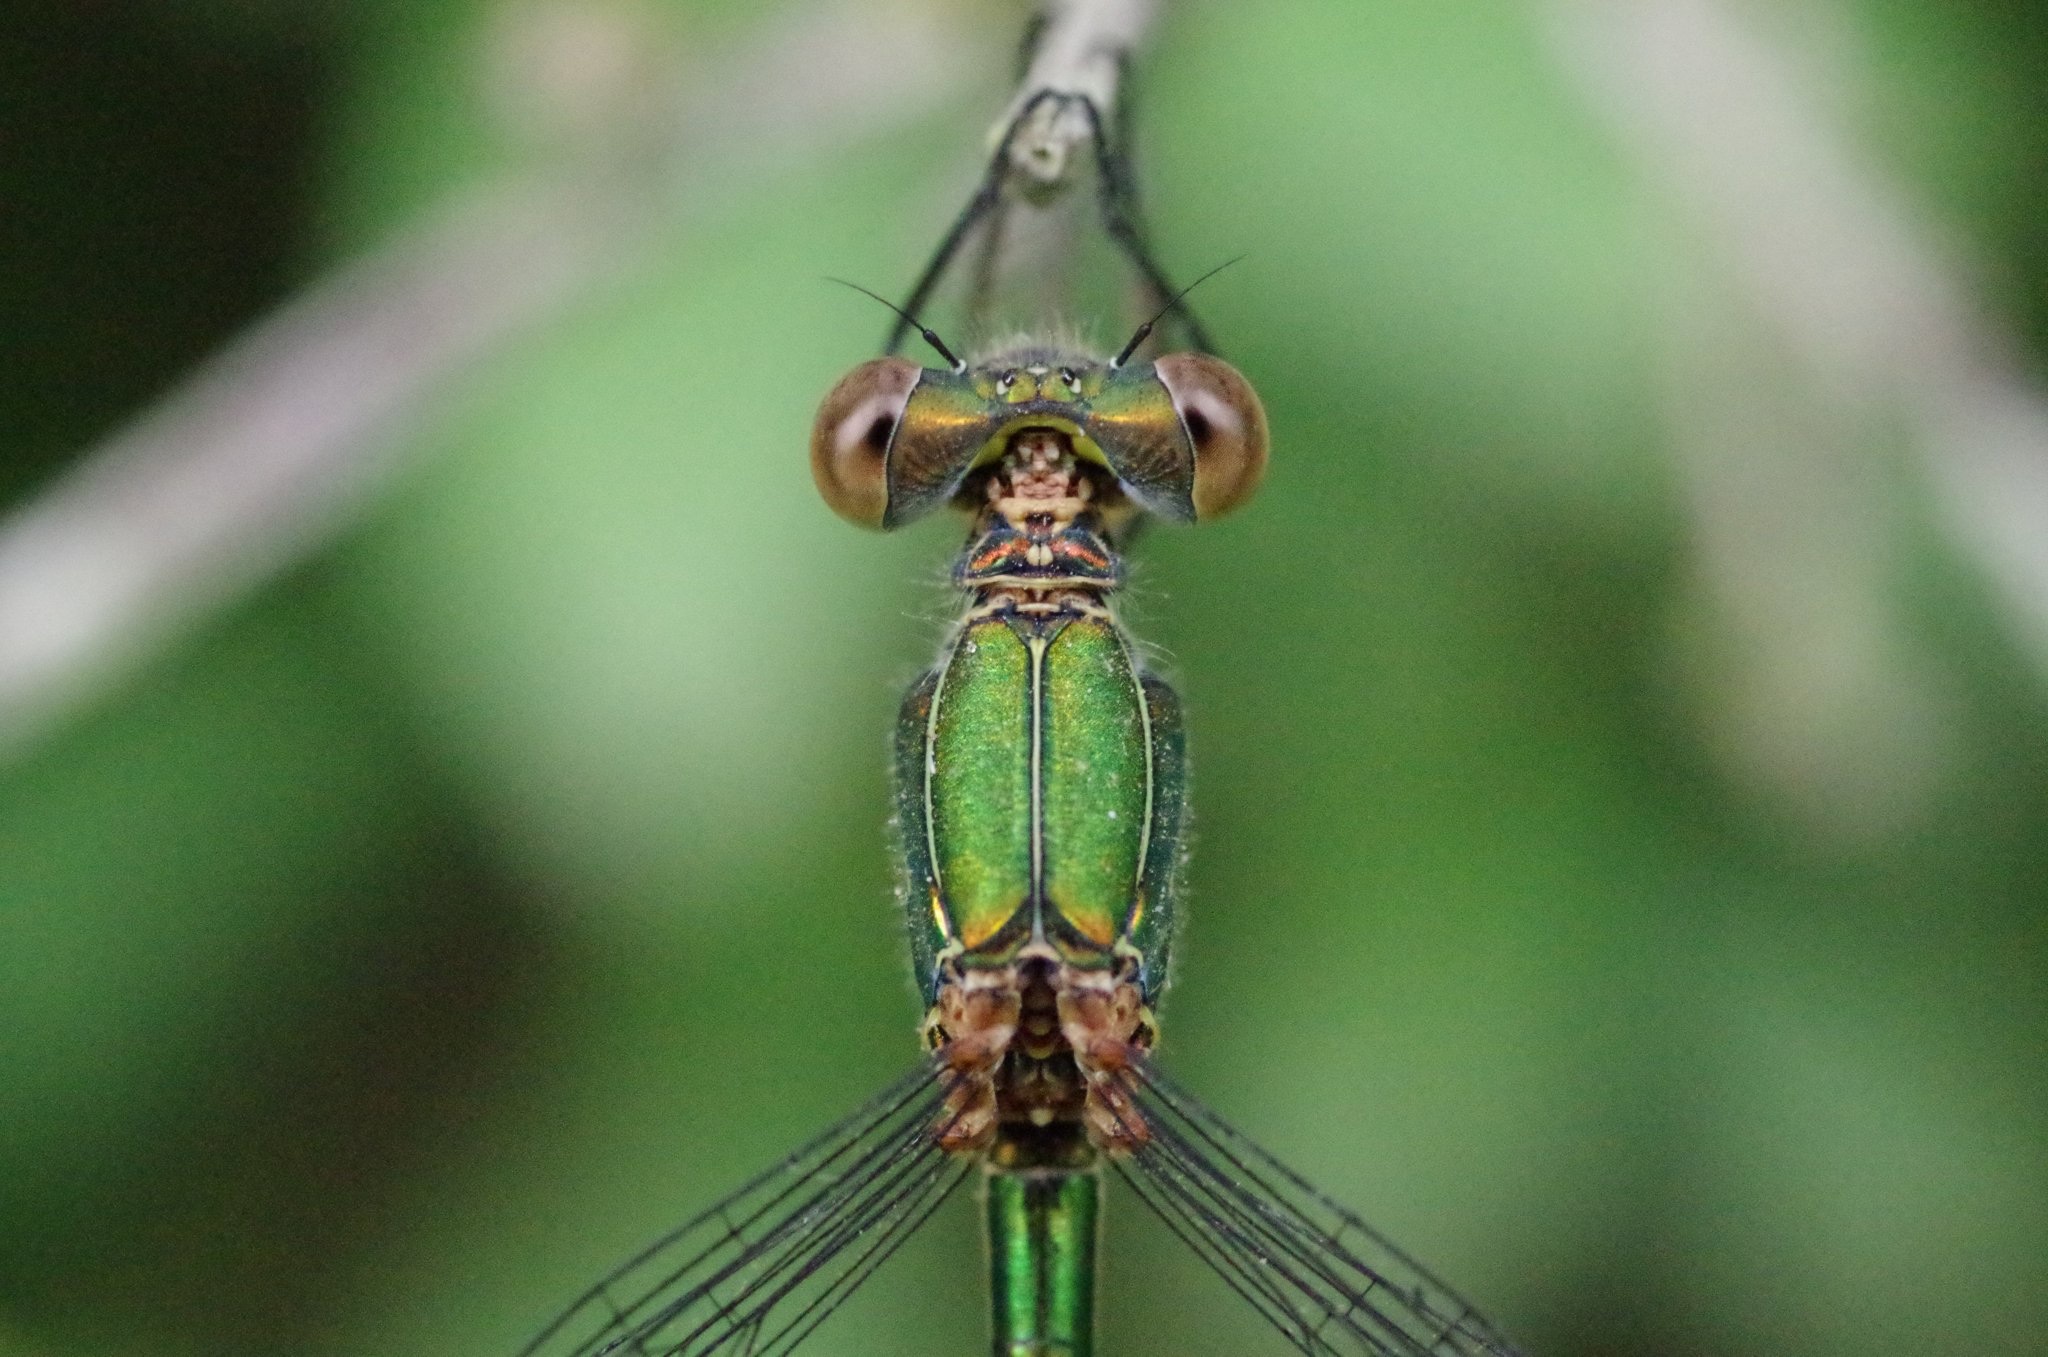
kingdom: Animalia
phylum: Arthropoda
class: Insecta
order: Odonata
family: Lestidae
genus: Chalcolestes
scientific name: Chalcolestes viridis
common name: Green emerald damselfly
